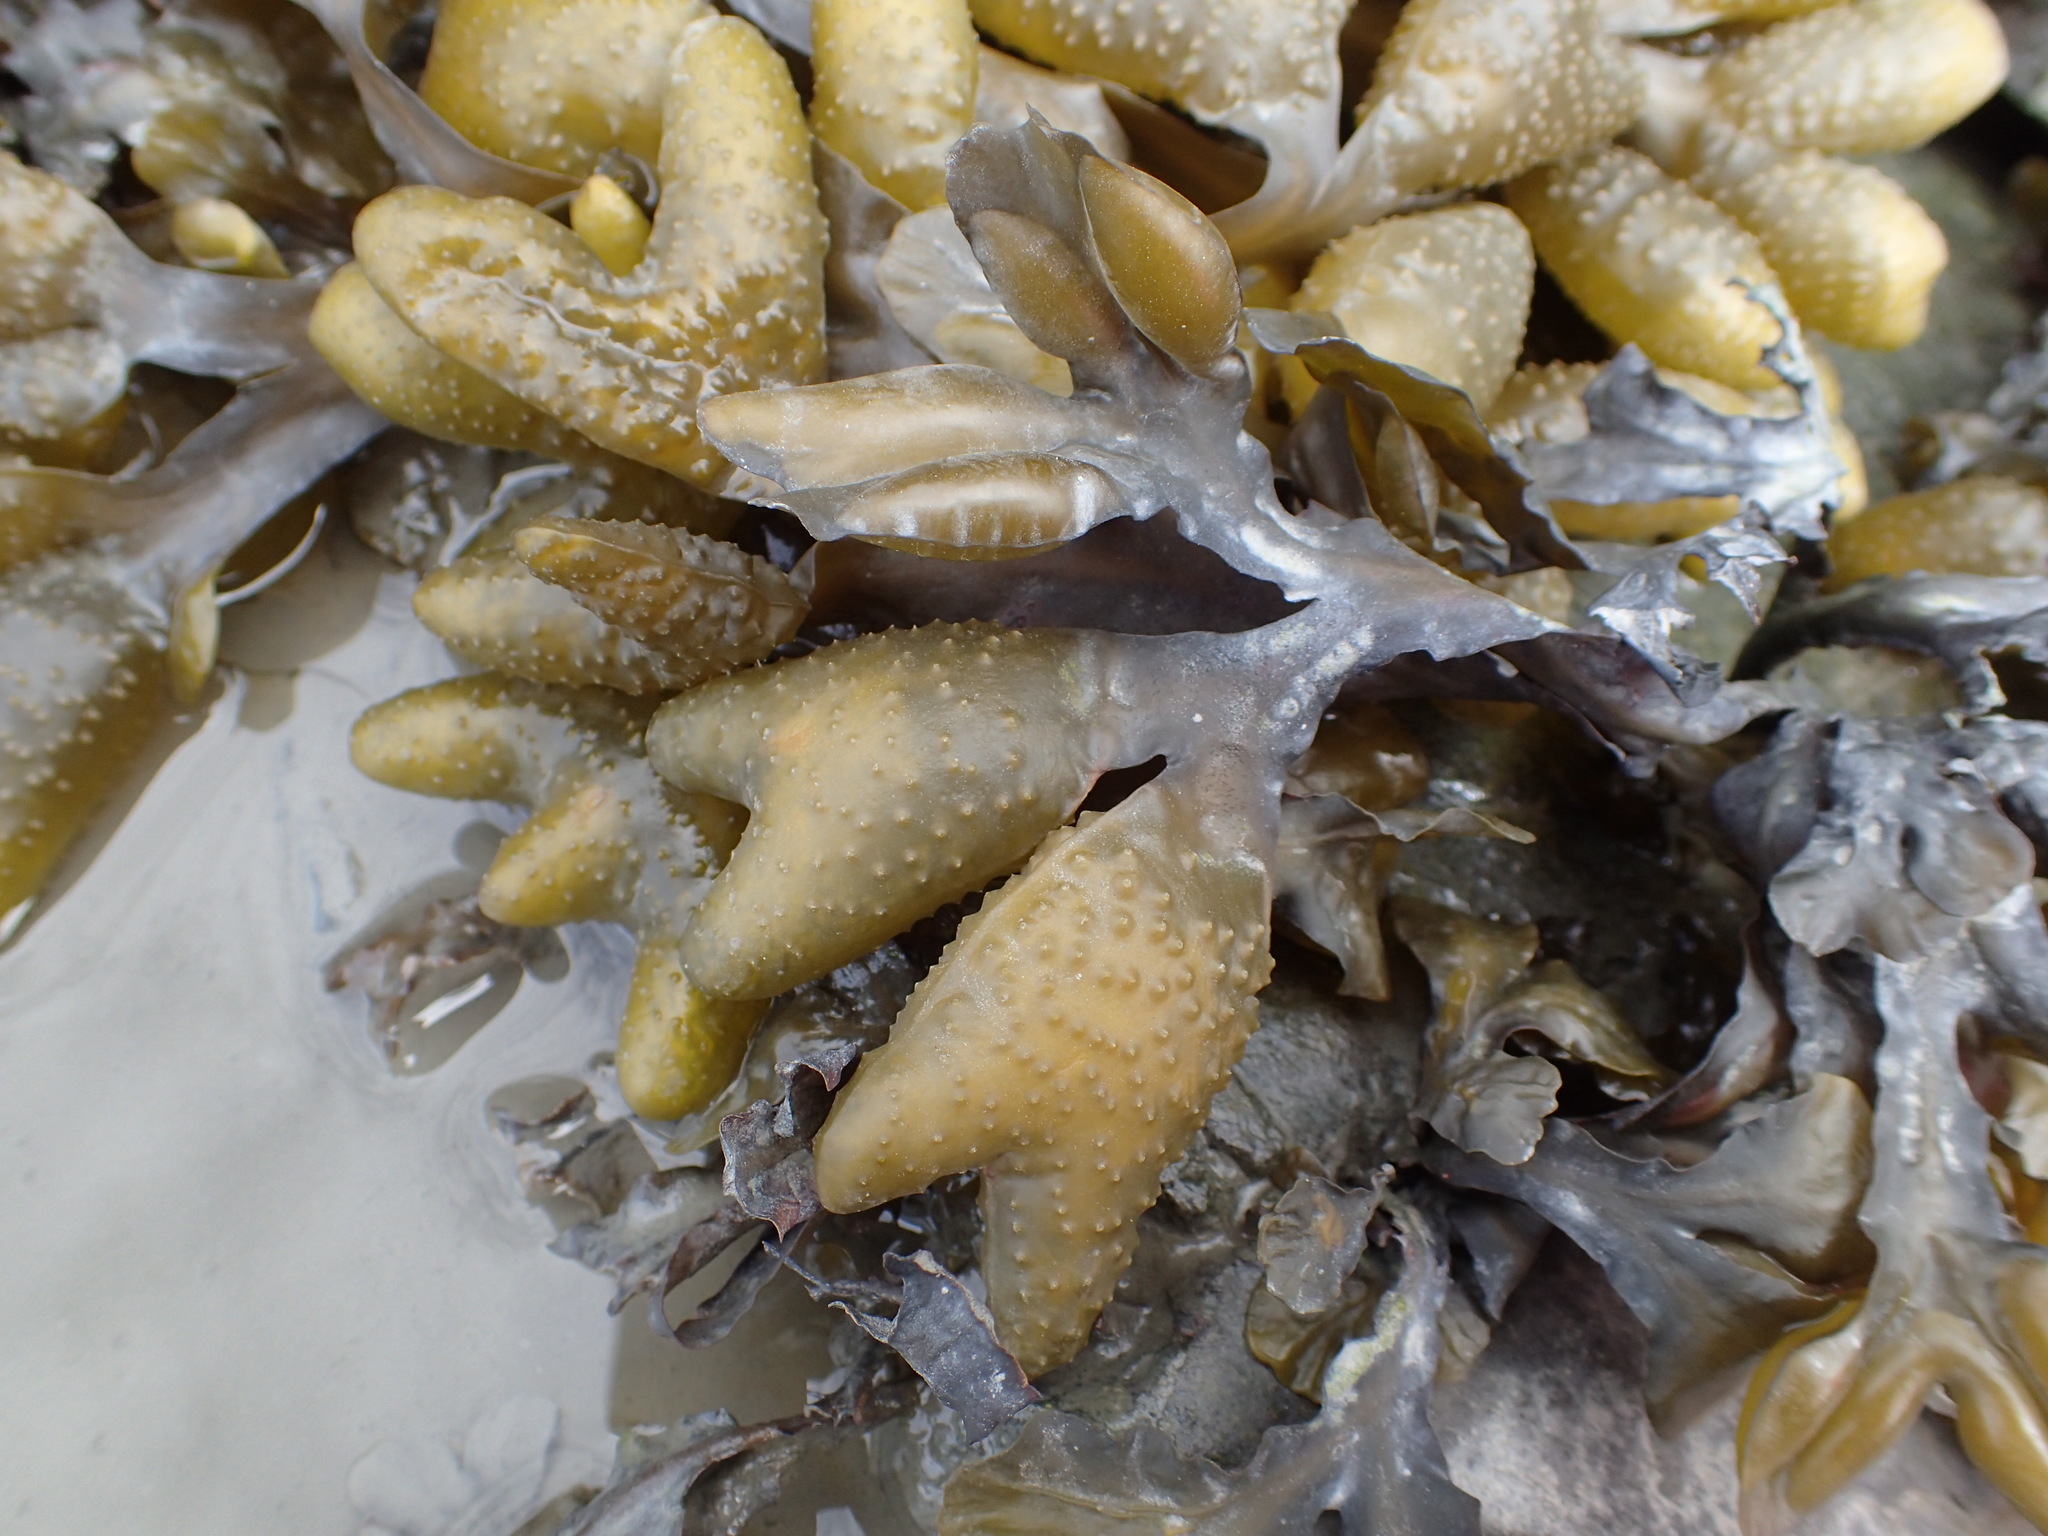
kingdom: Chromista
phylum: Ochrophyta
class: Phaeophyceae
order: Fucales
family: Fucaceae
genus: Fucus
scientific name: Fucus distichus
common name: Rockweed
